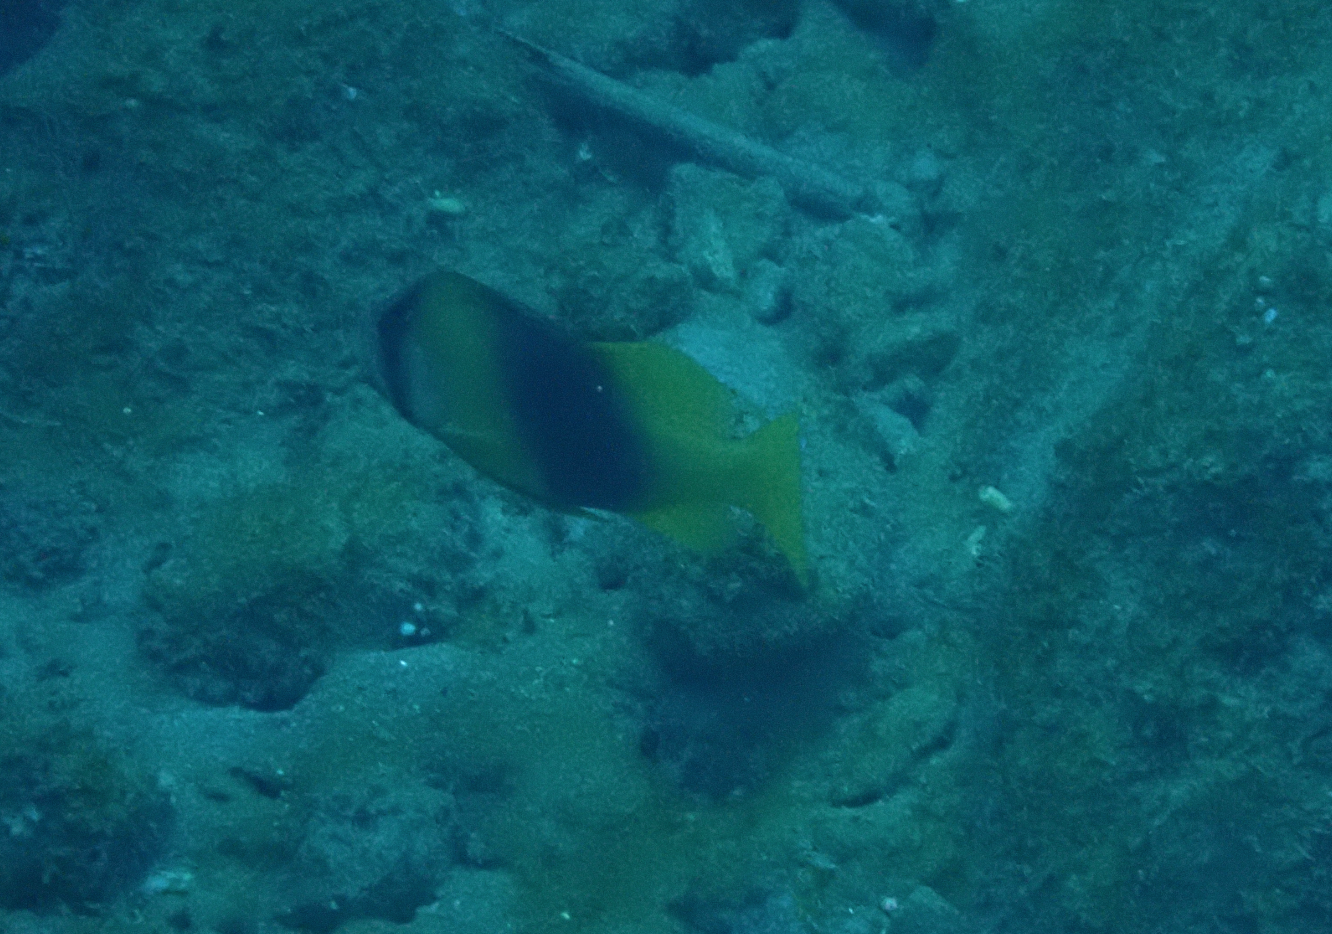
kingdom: Animalia
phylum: Chordata
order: Perciformes
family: Serranidae
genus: Diploprion
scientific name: Diploprion bifasciatum
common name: Barred soapfish
